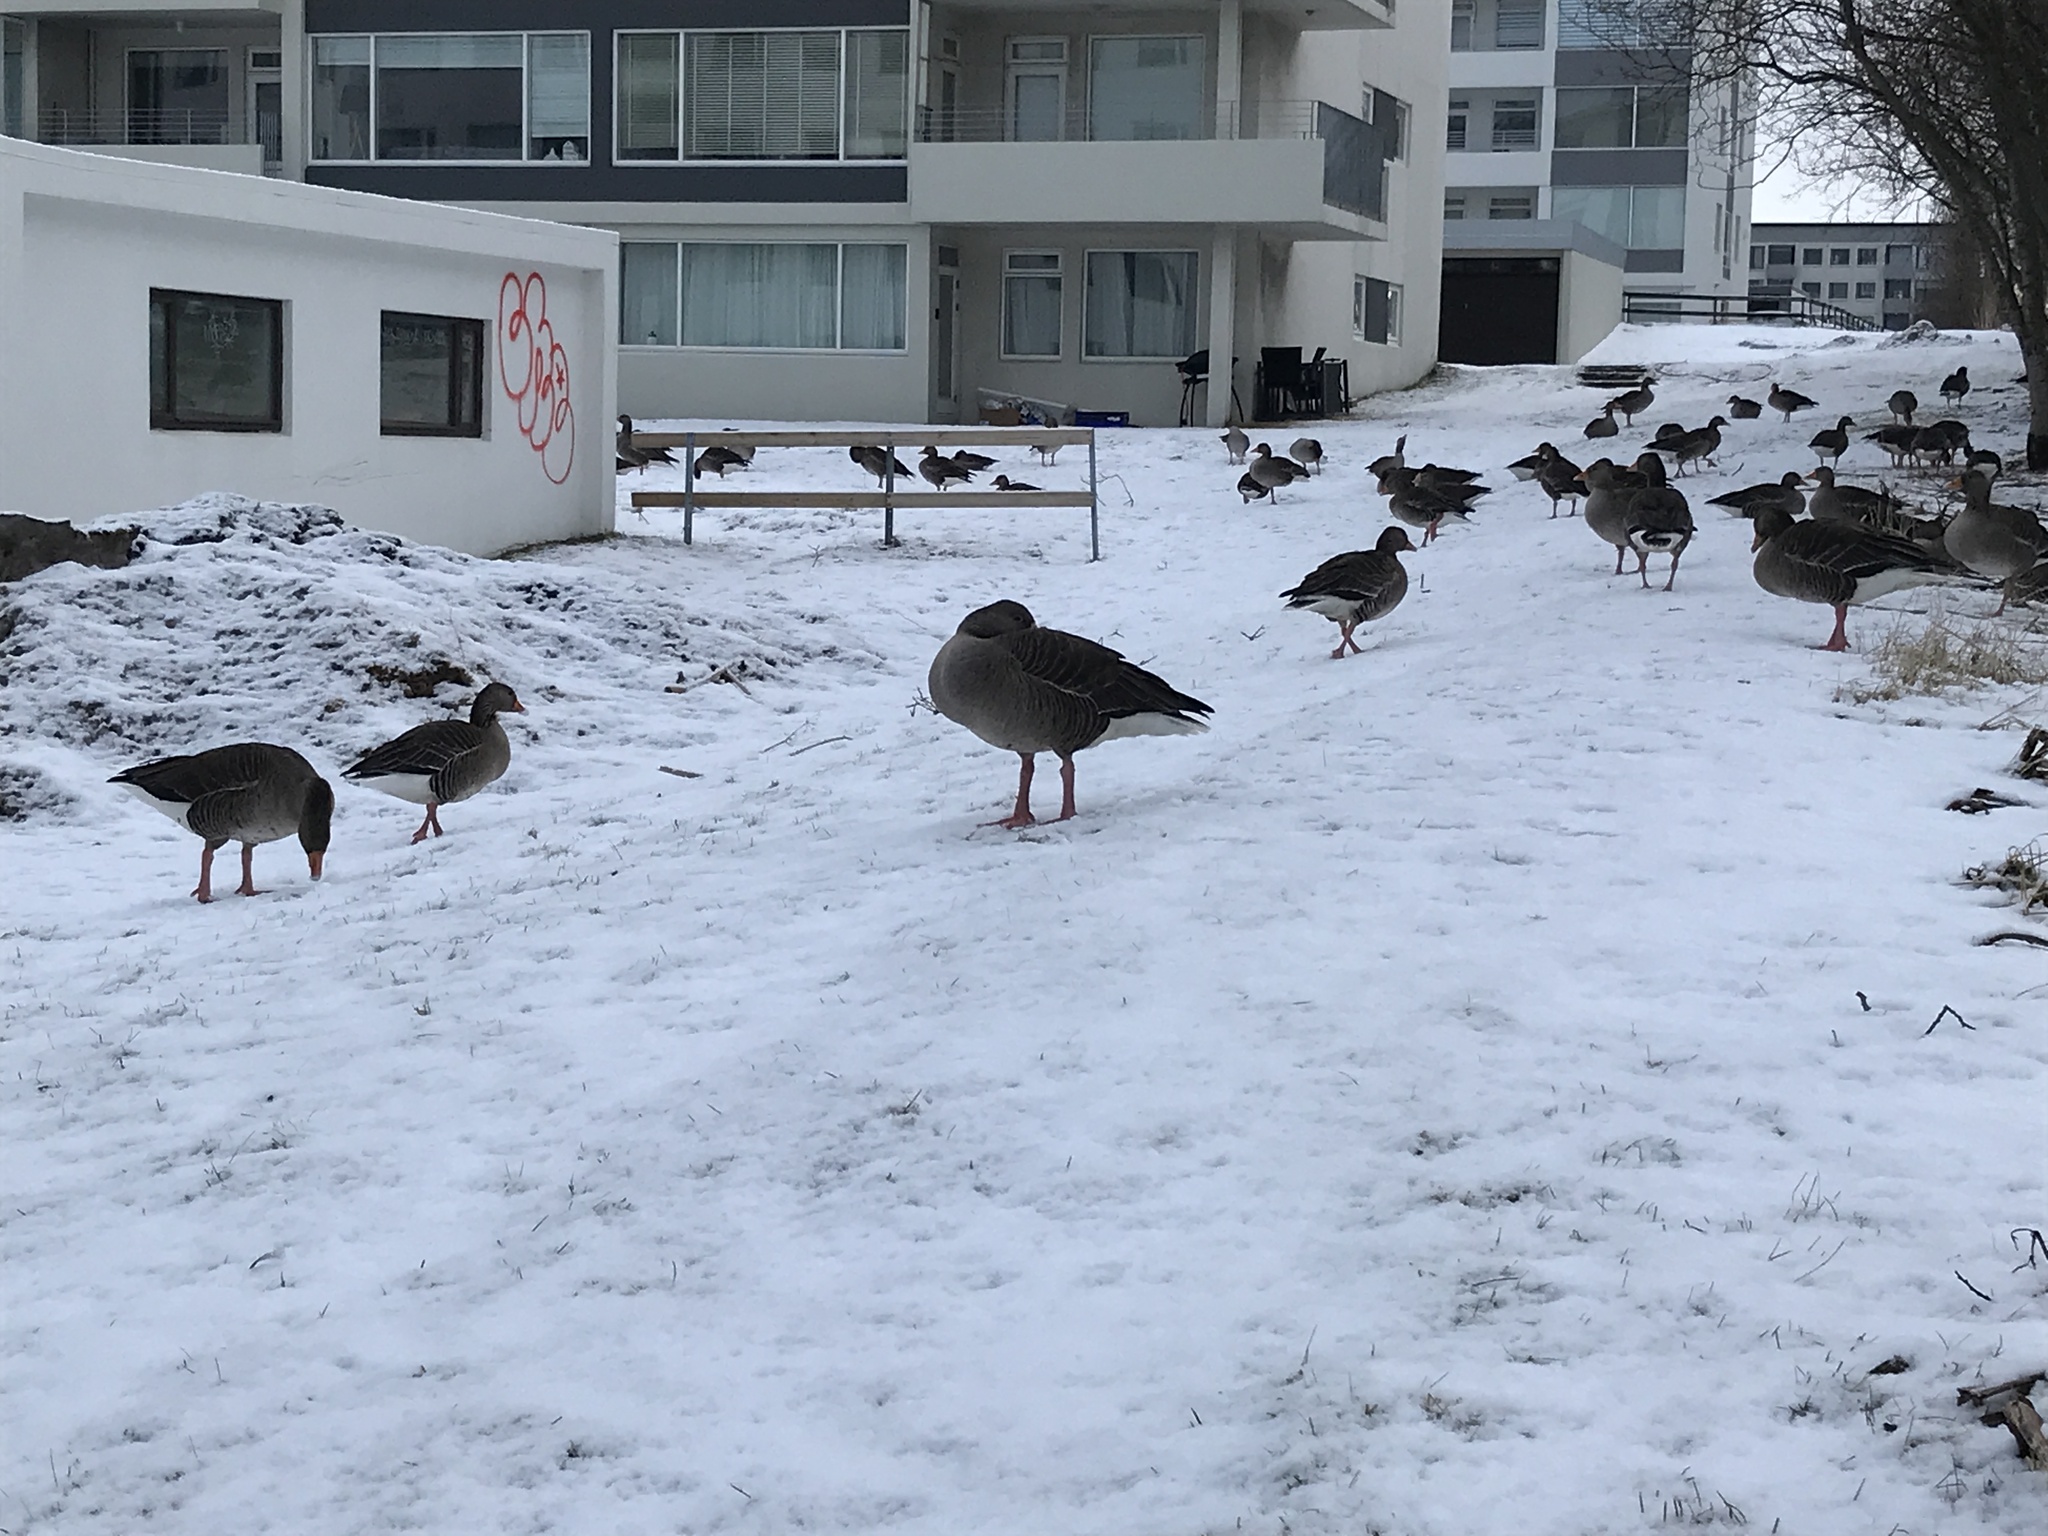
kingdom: Animalia
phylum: Chordata
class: Aves
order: Anseriformes
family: Anatidae
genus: Anser
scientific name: Anser anser
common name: Greylag goose
